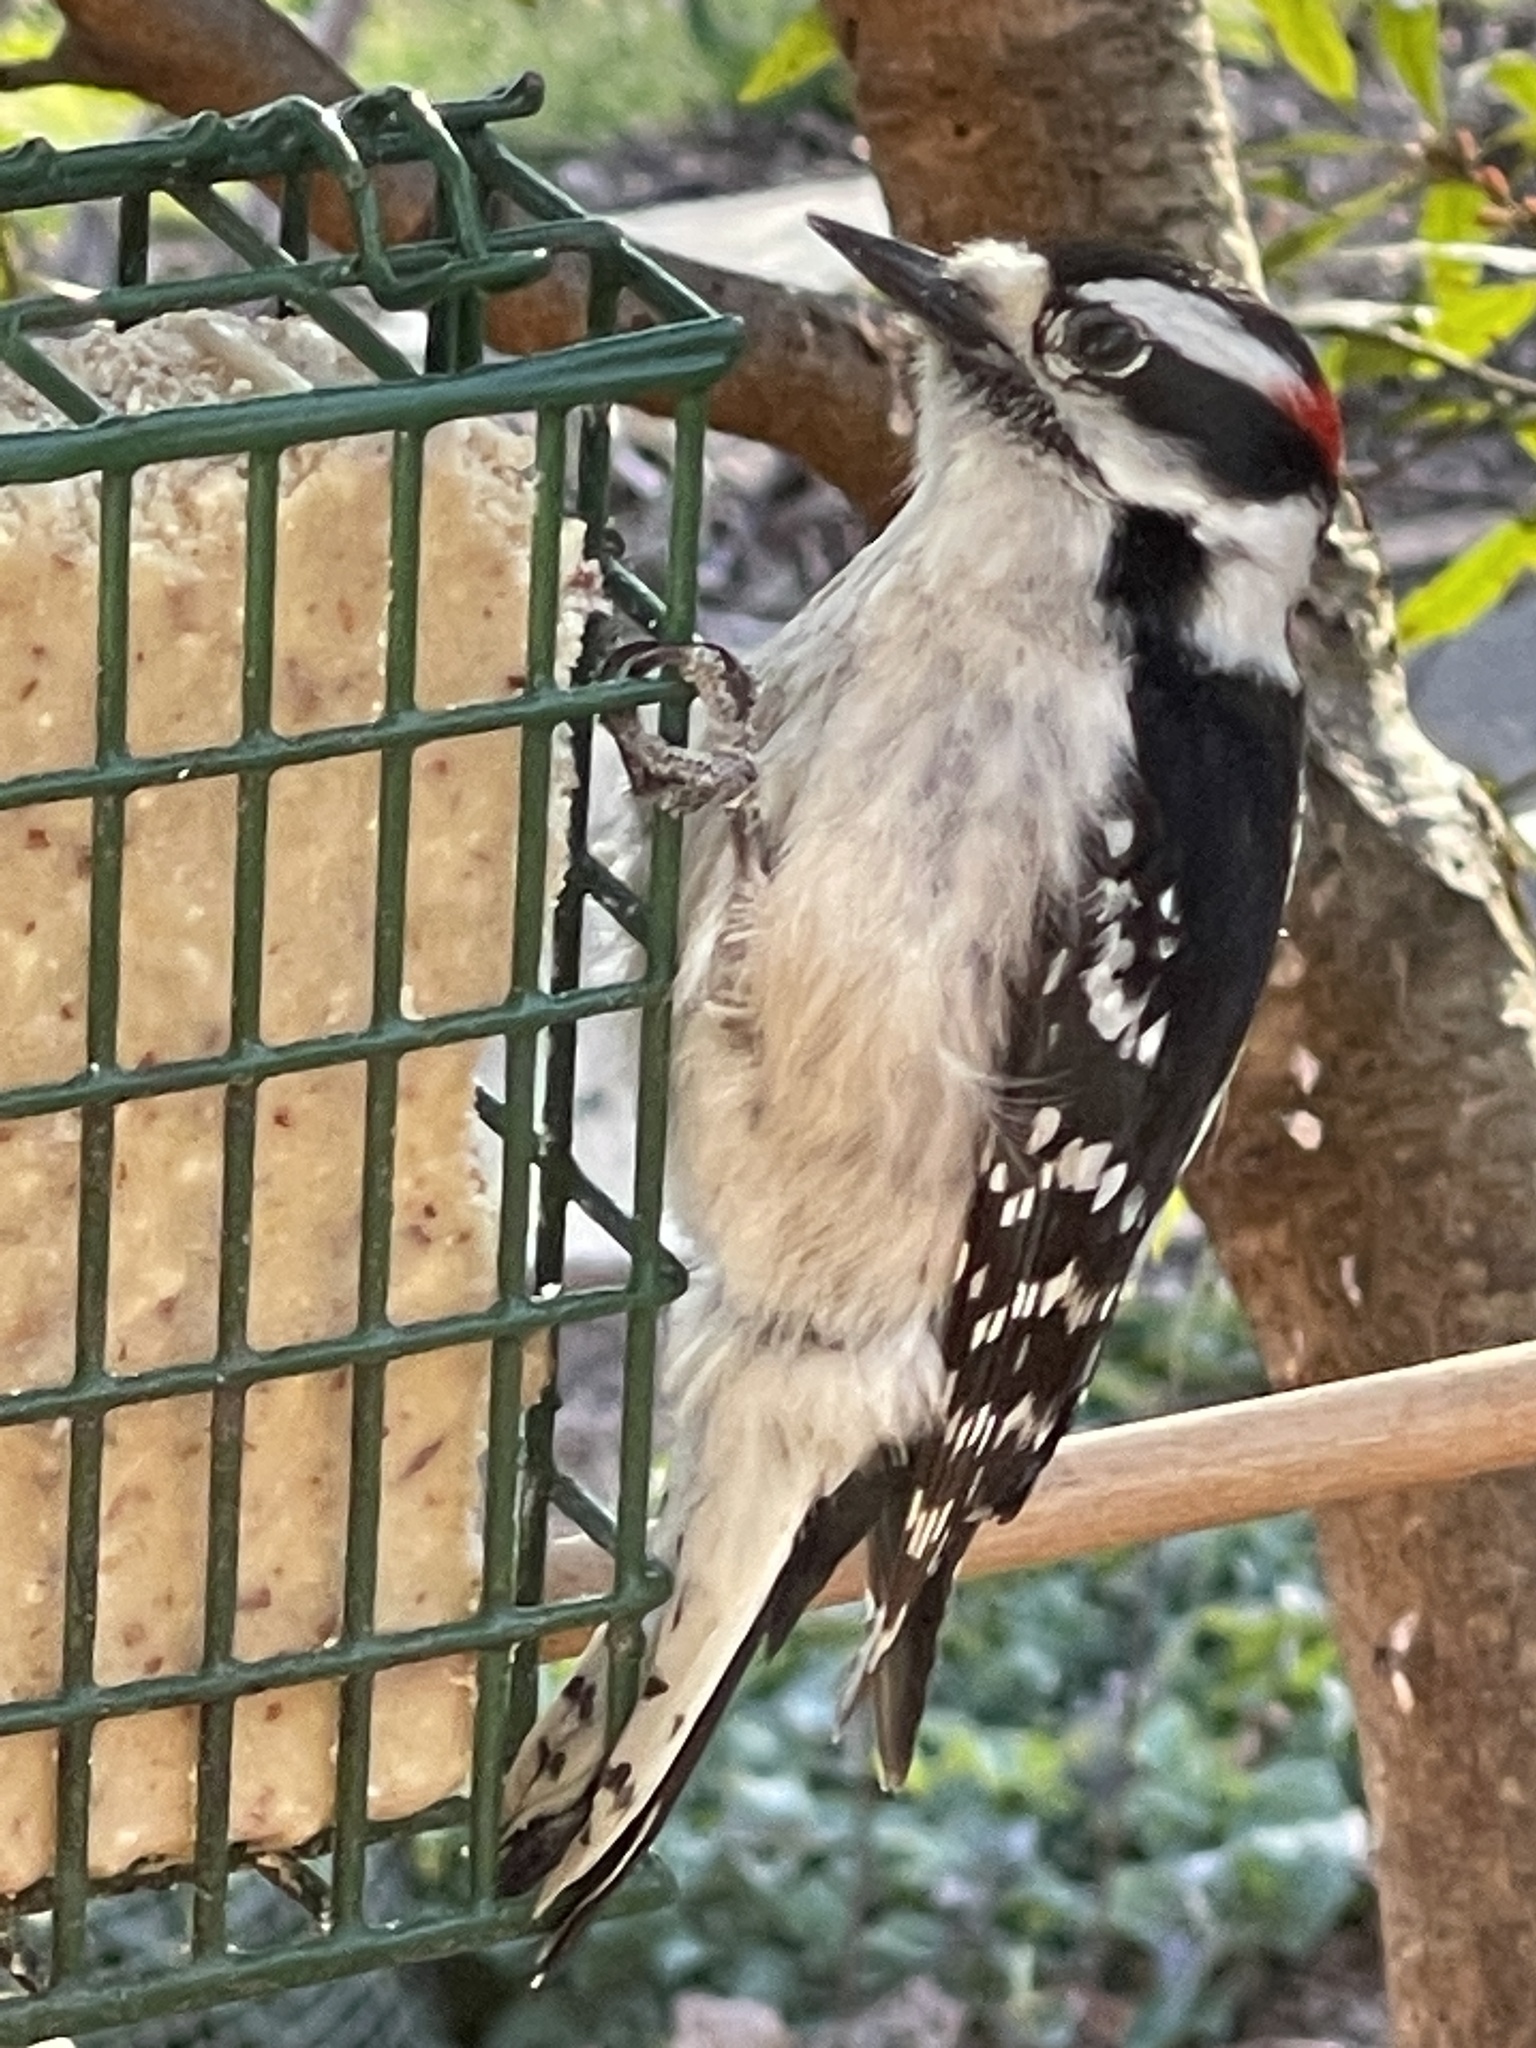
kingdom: Animalia
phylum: Chordata
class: Aves
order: Piciformes
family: Picidae
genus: Dryobates
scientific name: Dryobates pubescens
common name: Downy woodpecker
